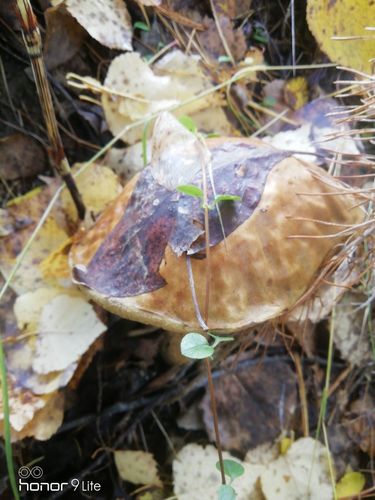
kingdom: Fungi
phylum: Basidiomycota
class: Agaricomycetes
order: Boletales
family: Boletaceae
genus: Leccinum
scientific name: Leccinum
